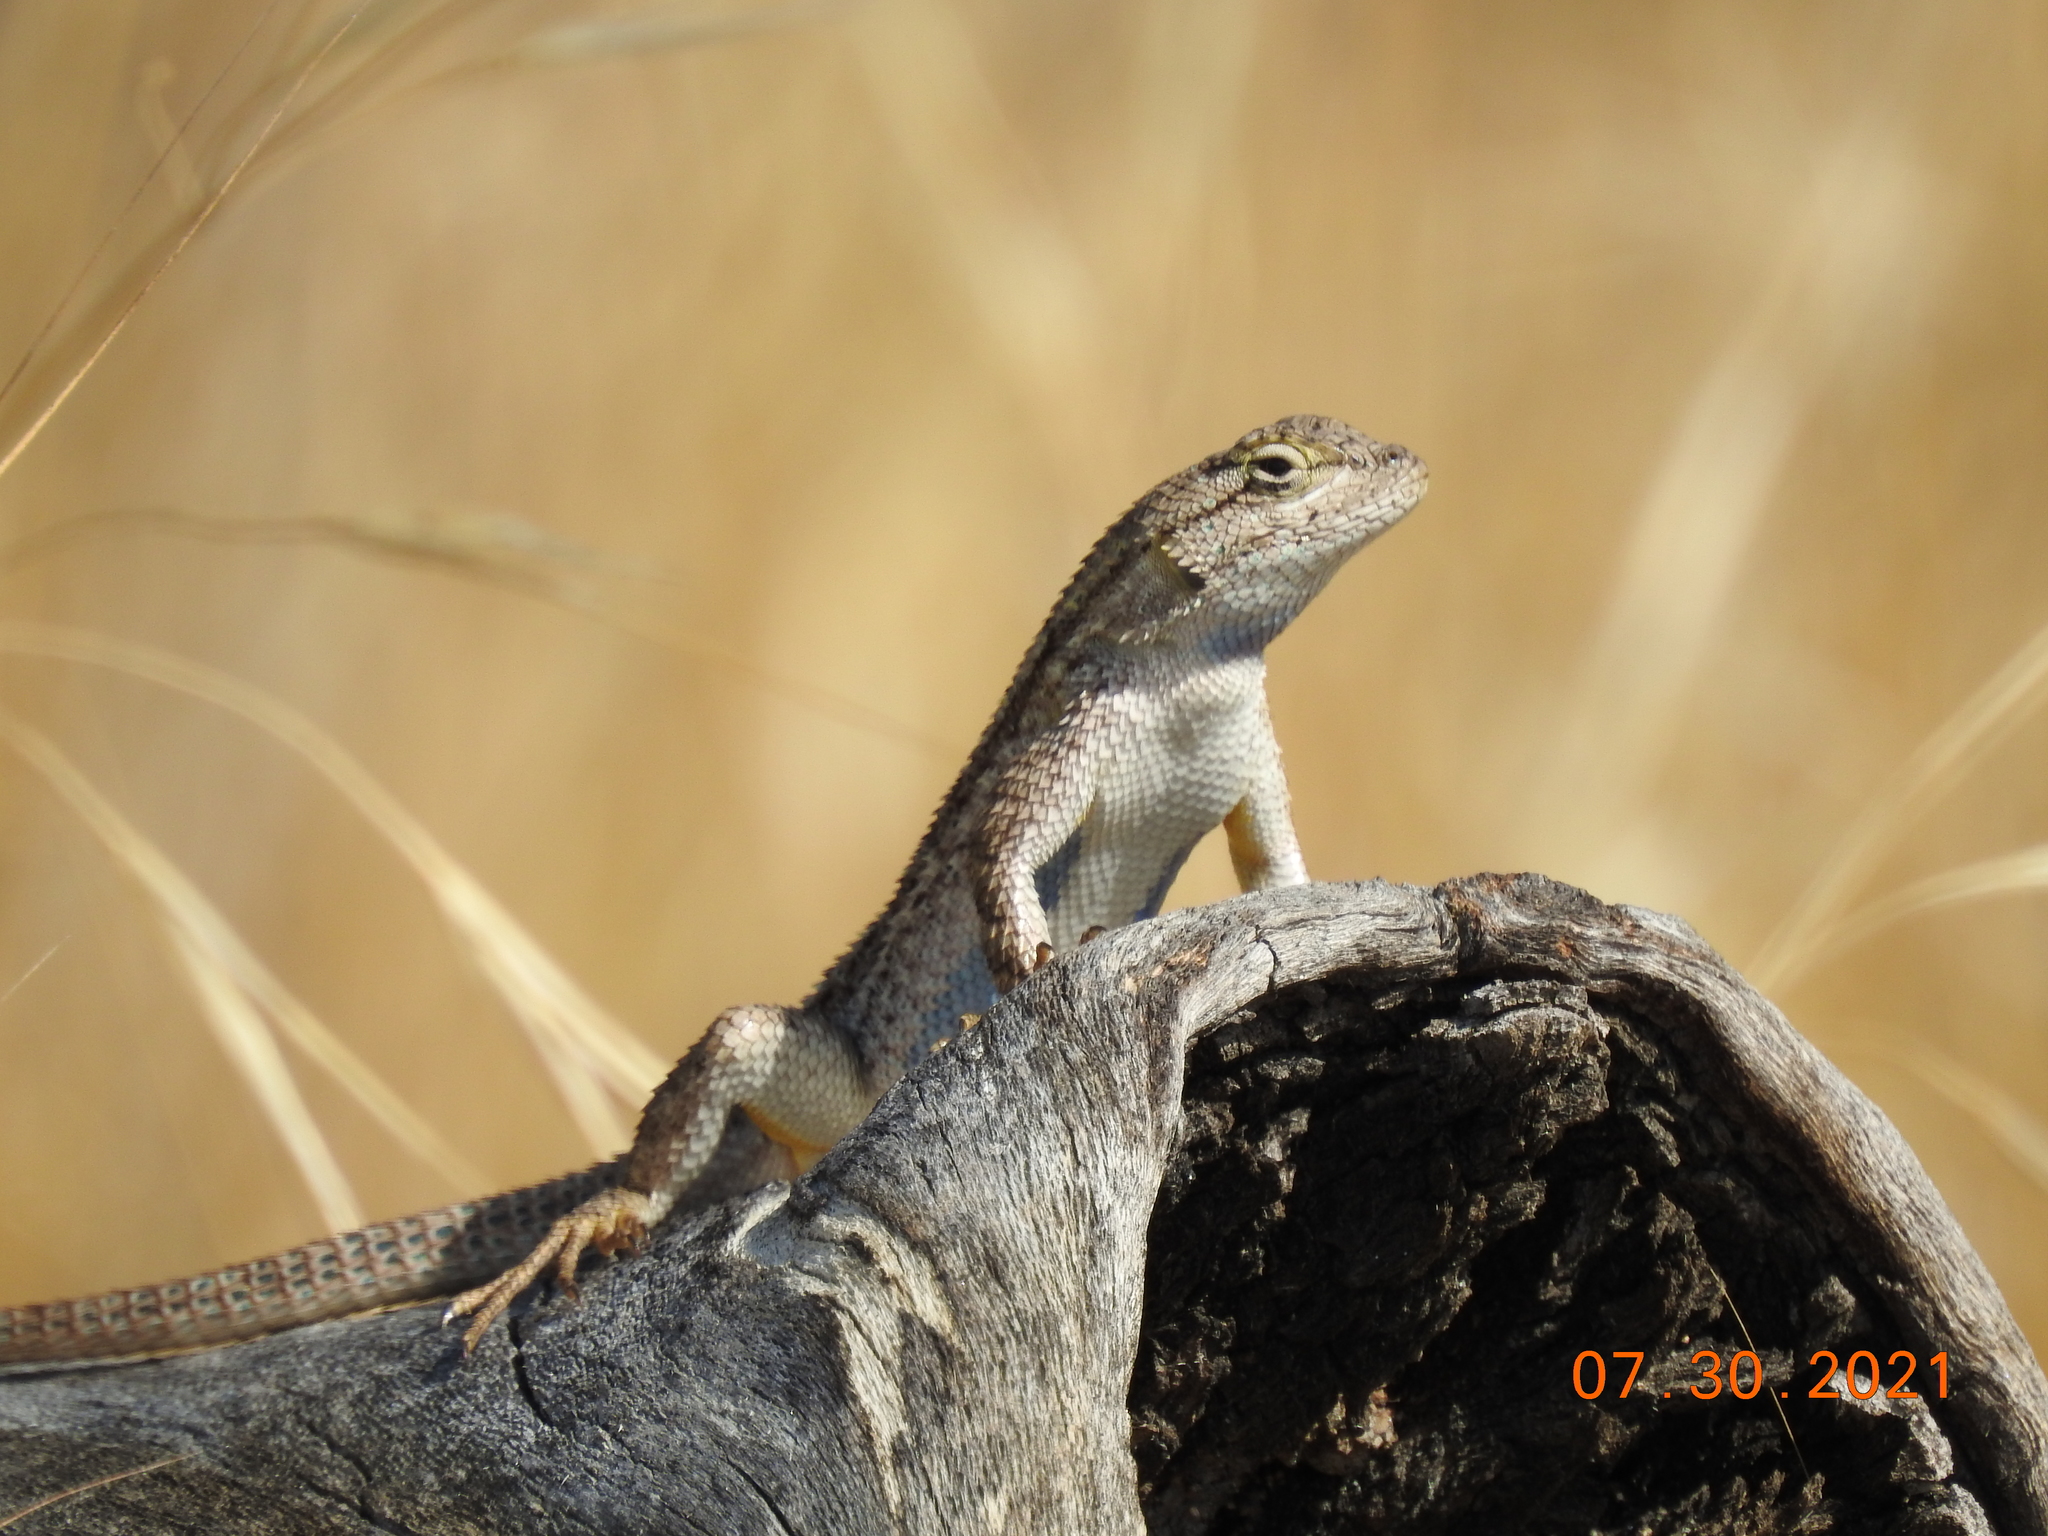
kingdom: Animalia
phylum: Chordata
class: Squamata
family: Phrynosomatidae
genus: Sceloporus
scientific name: Sceloporus occidentalis
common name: Western fence lizard
